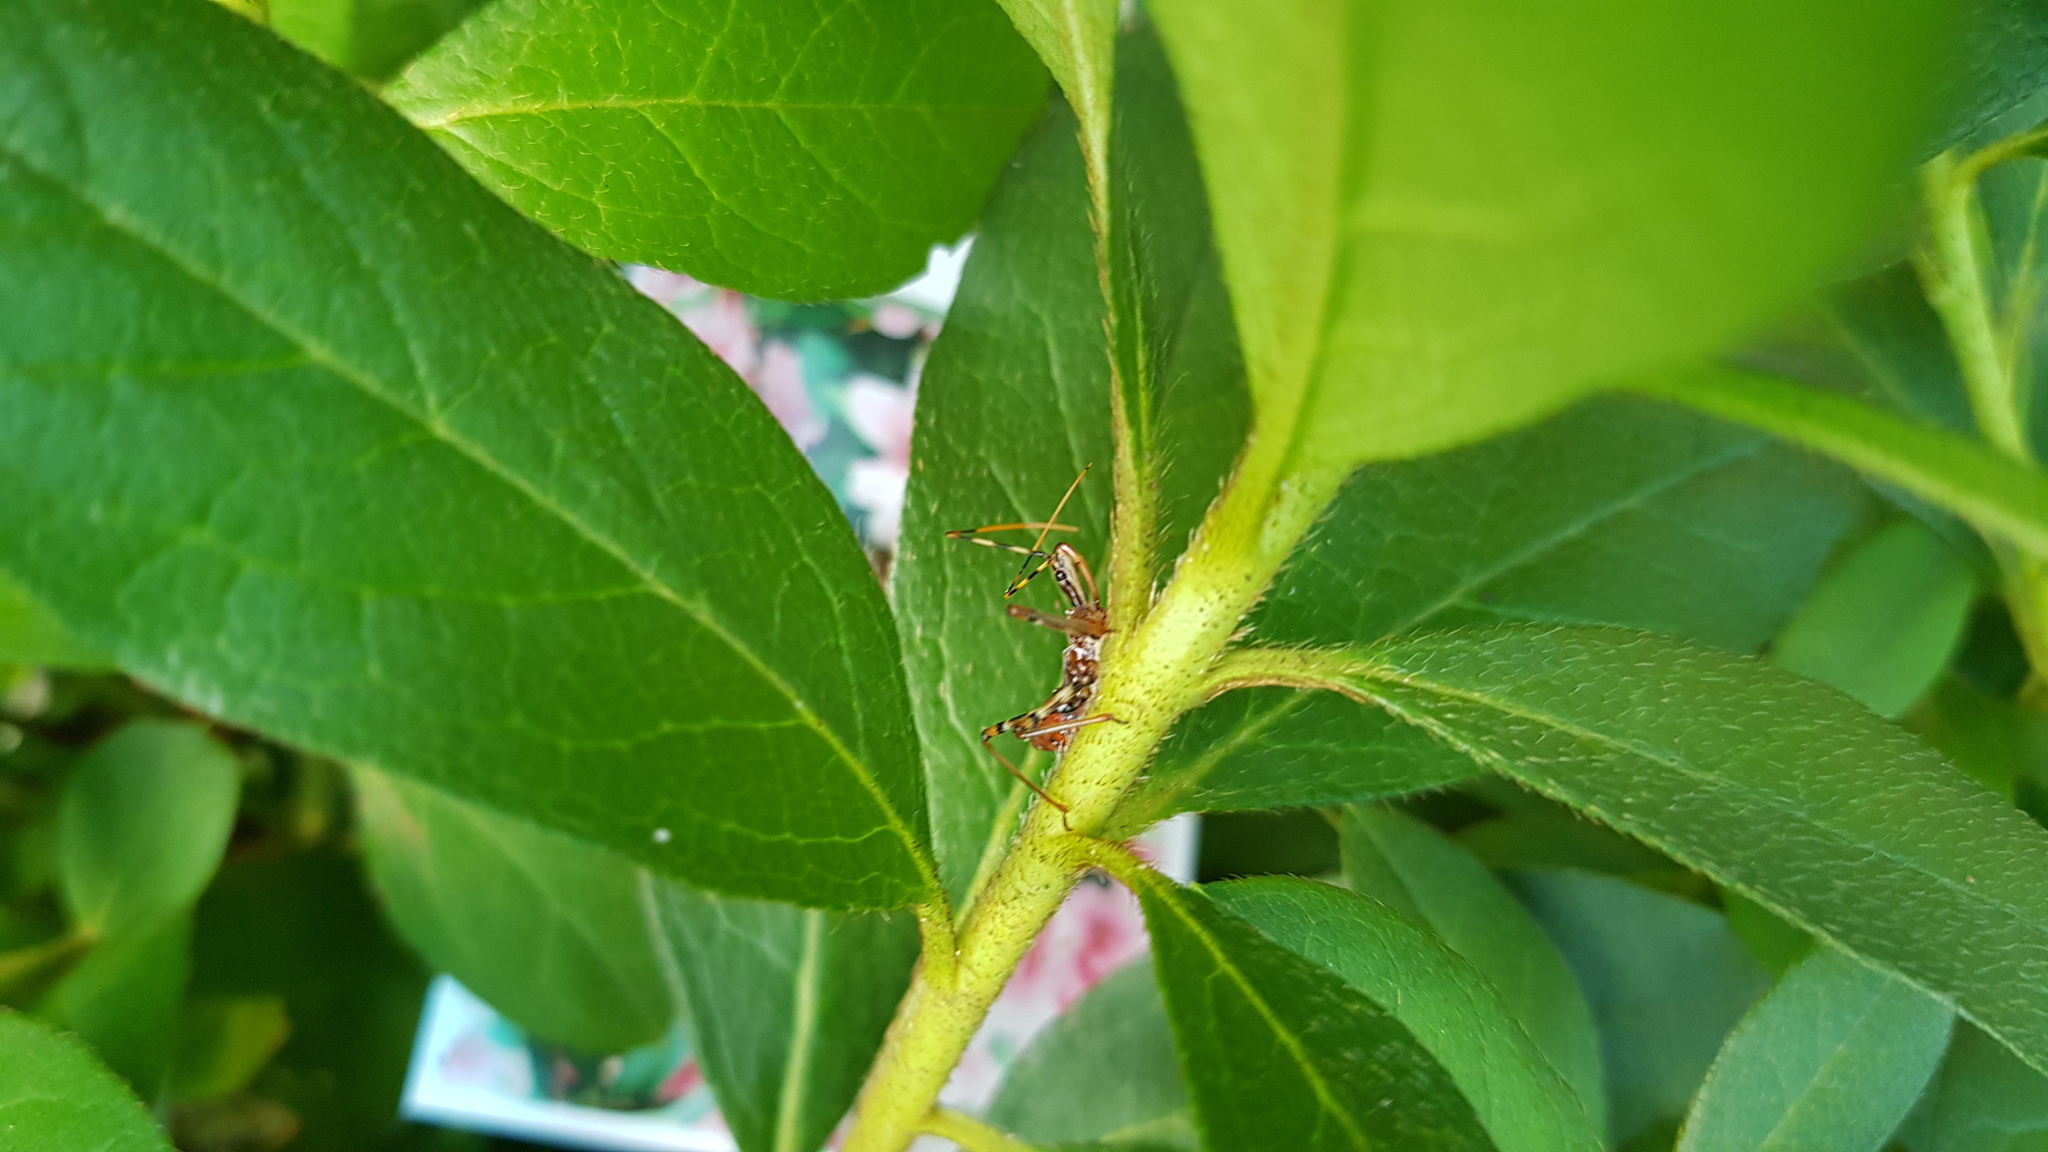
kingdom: Animalia
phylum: Arthropoda
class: Insecta
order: Hemiptera
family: Reduviidae
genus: Pristhesancus
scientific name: Pristhesancus plagipennis
